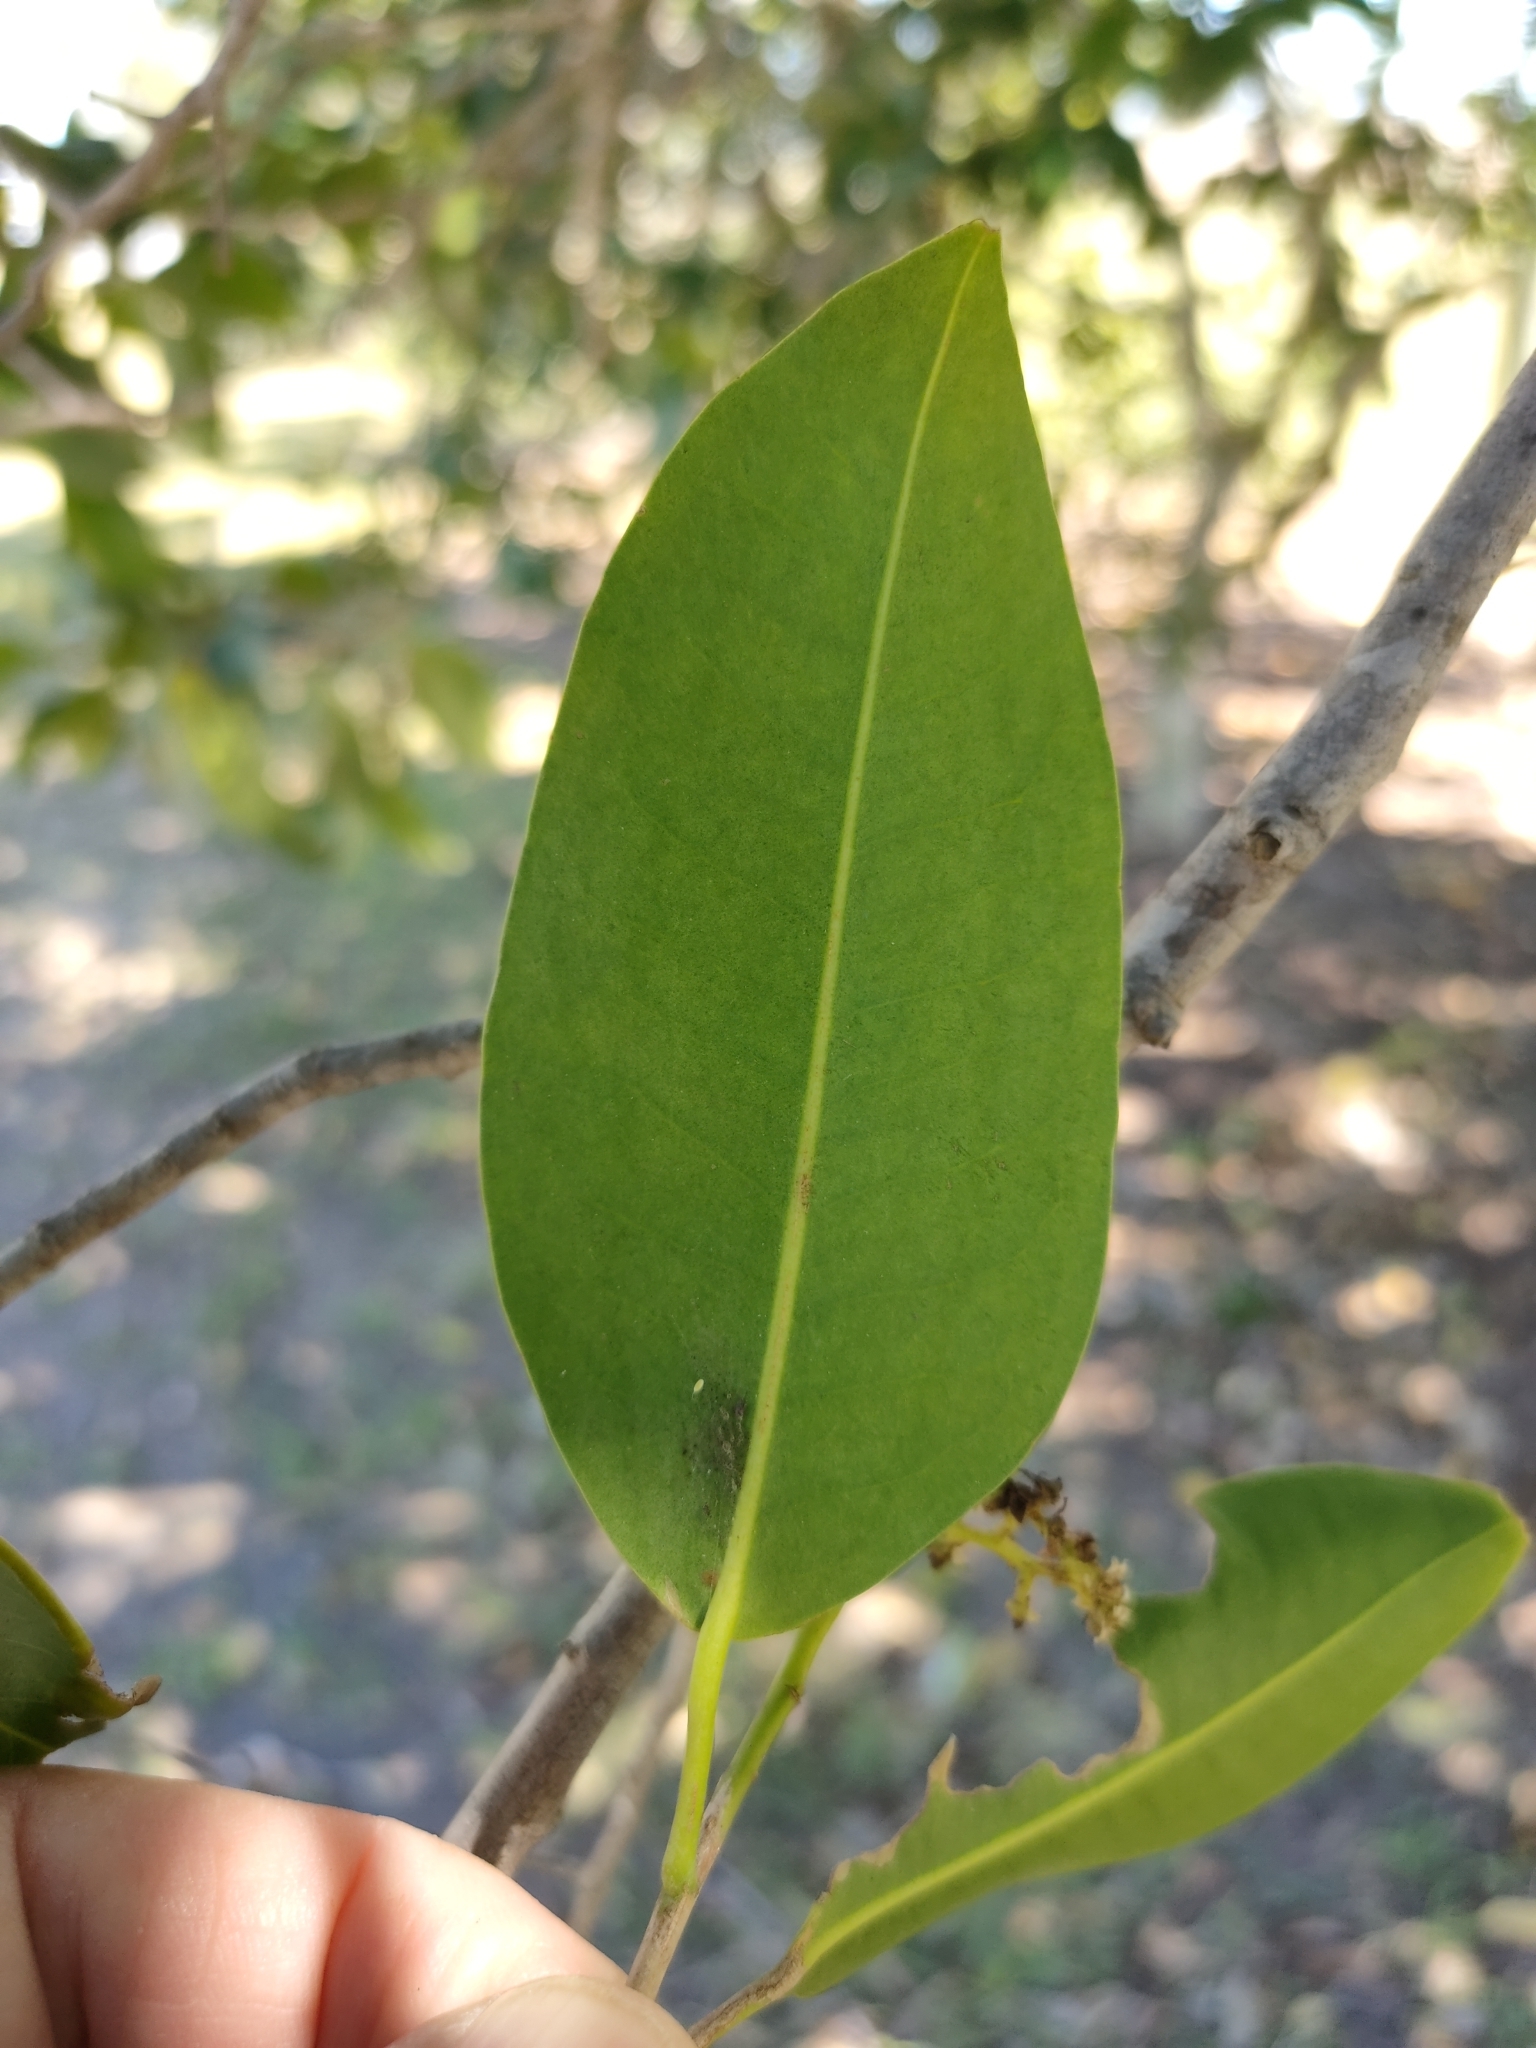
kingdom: Plantae
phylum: Tracheophyta
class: Magnoliopsida
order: Sapindales
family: Rutaceae
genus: Geijera
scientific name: Geijera salicifolia
